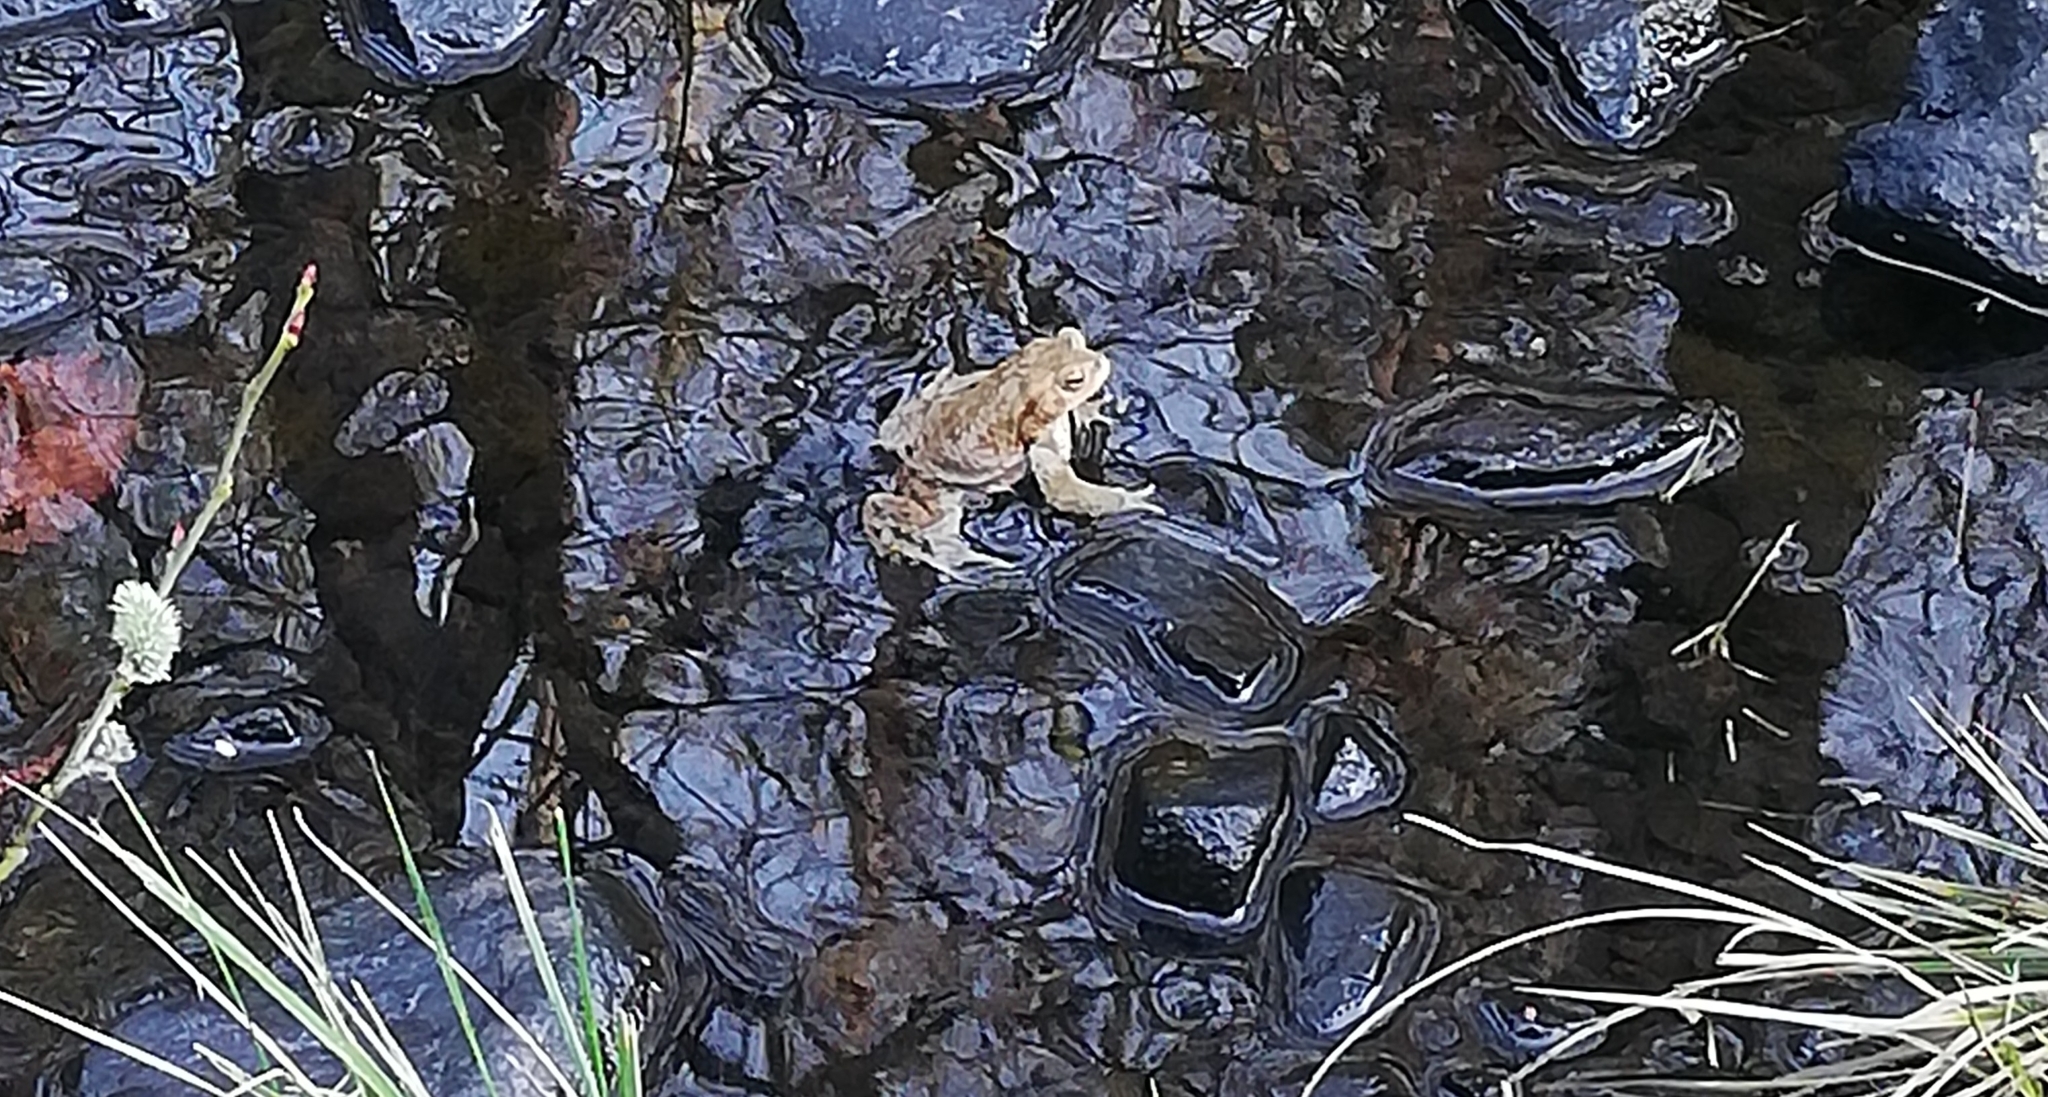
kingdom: Animalia
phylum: Chordata
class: Amphibia
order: Anura
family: Bufonidae
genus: Bufo
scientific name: Bufo bufo
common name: Common toad
